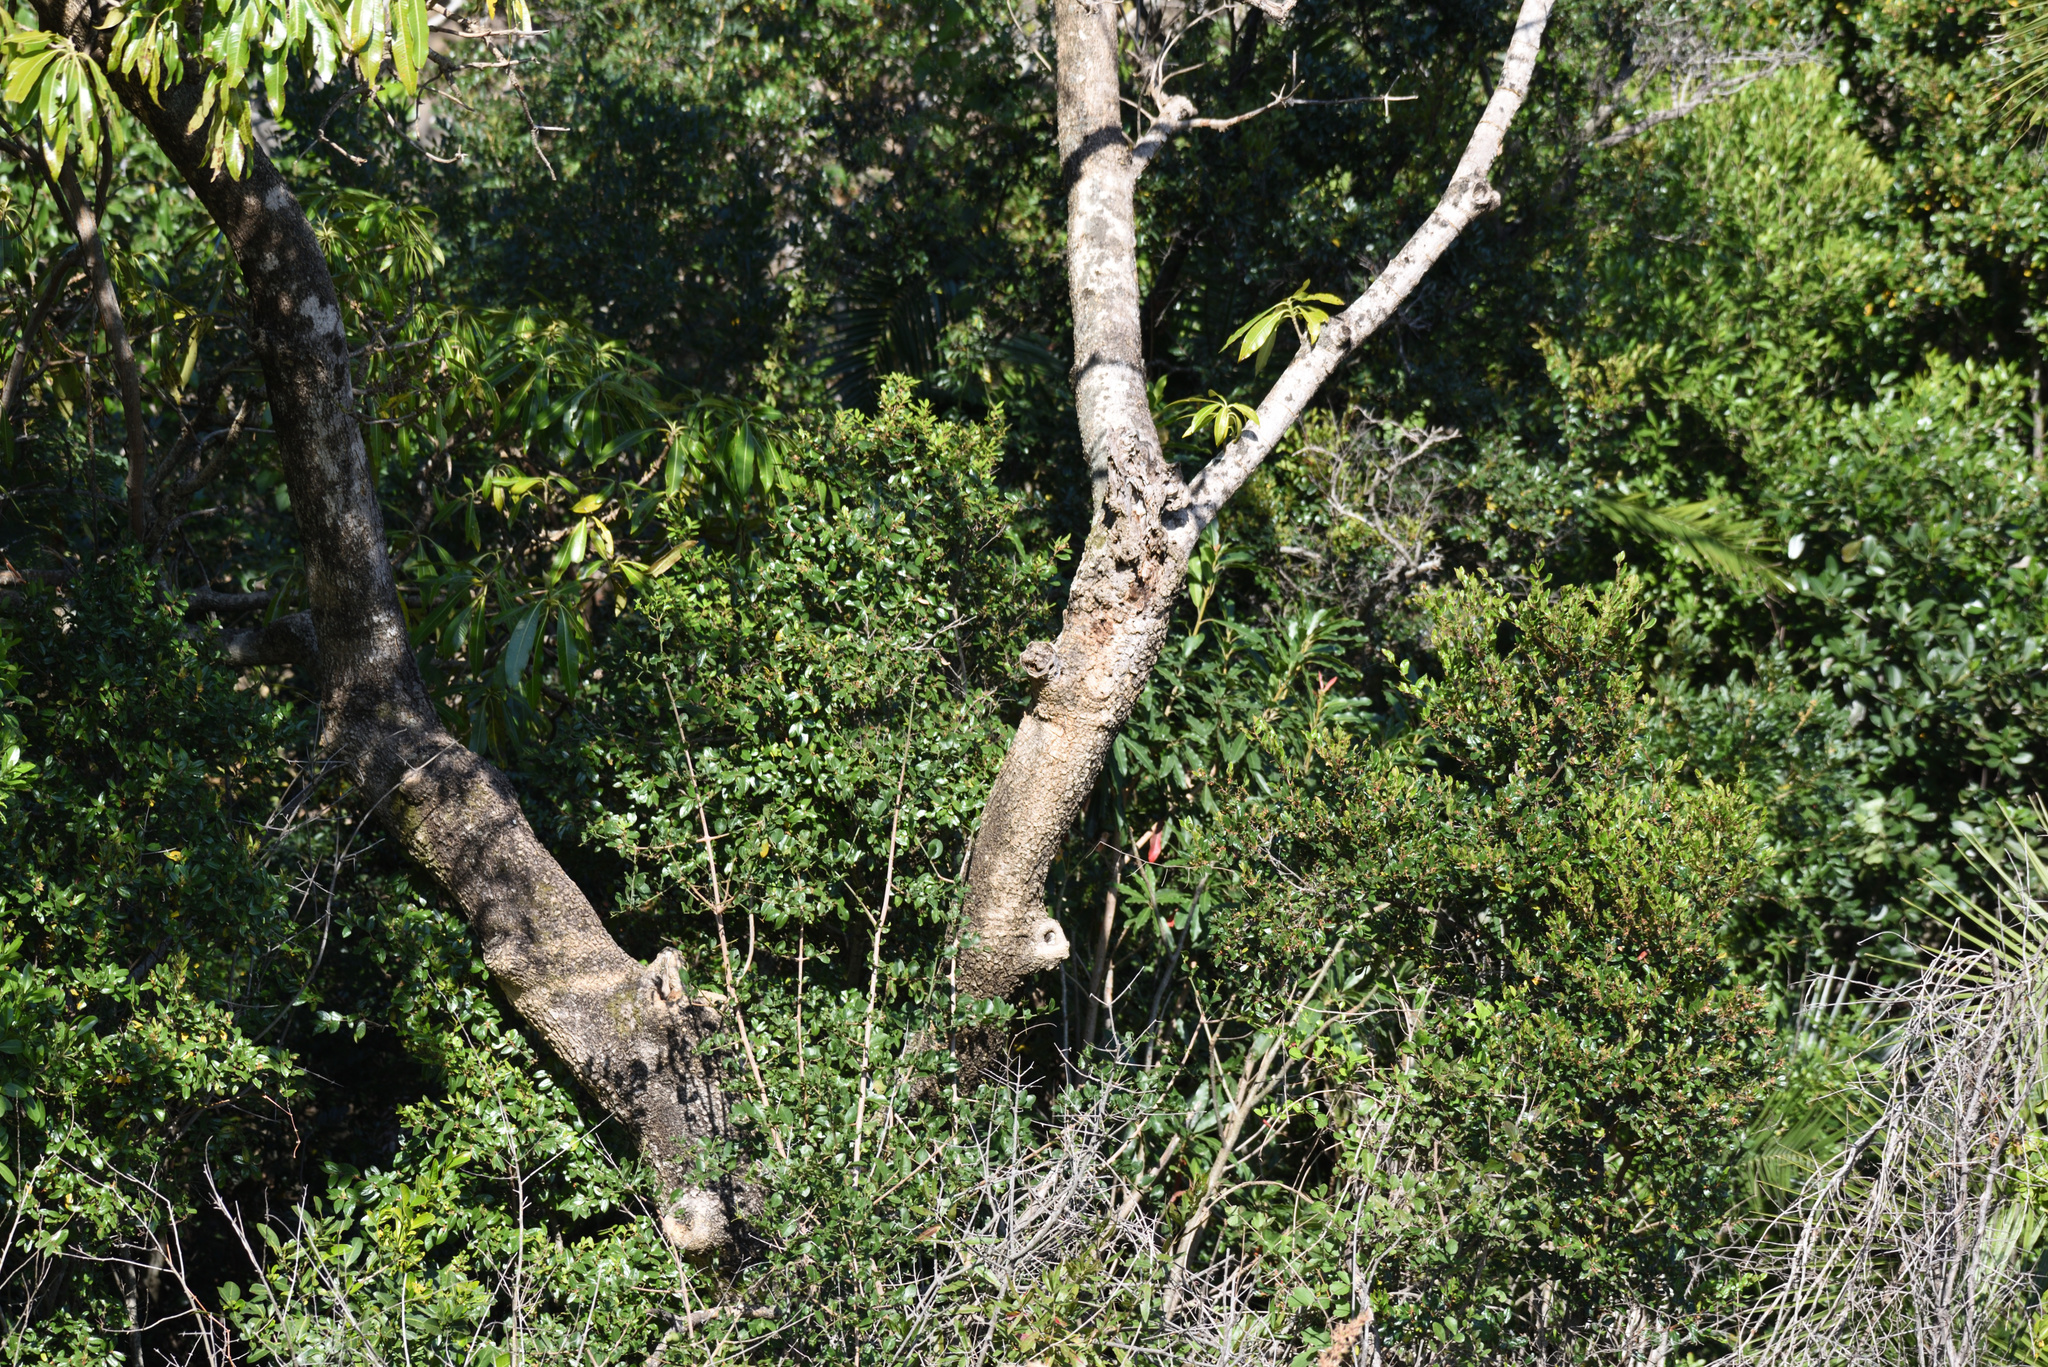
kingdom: Plantae
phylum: Tracheophyta
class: Magnoliopsida
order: Gentianales
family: Apocynaceae
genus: Rauvolfia
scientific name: Rauvolfia caffra
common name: Quininetree
